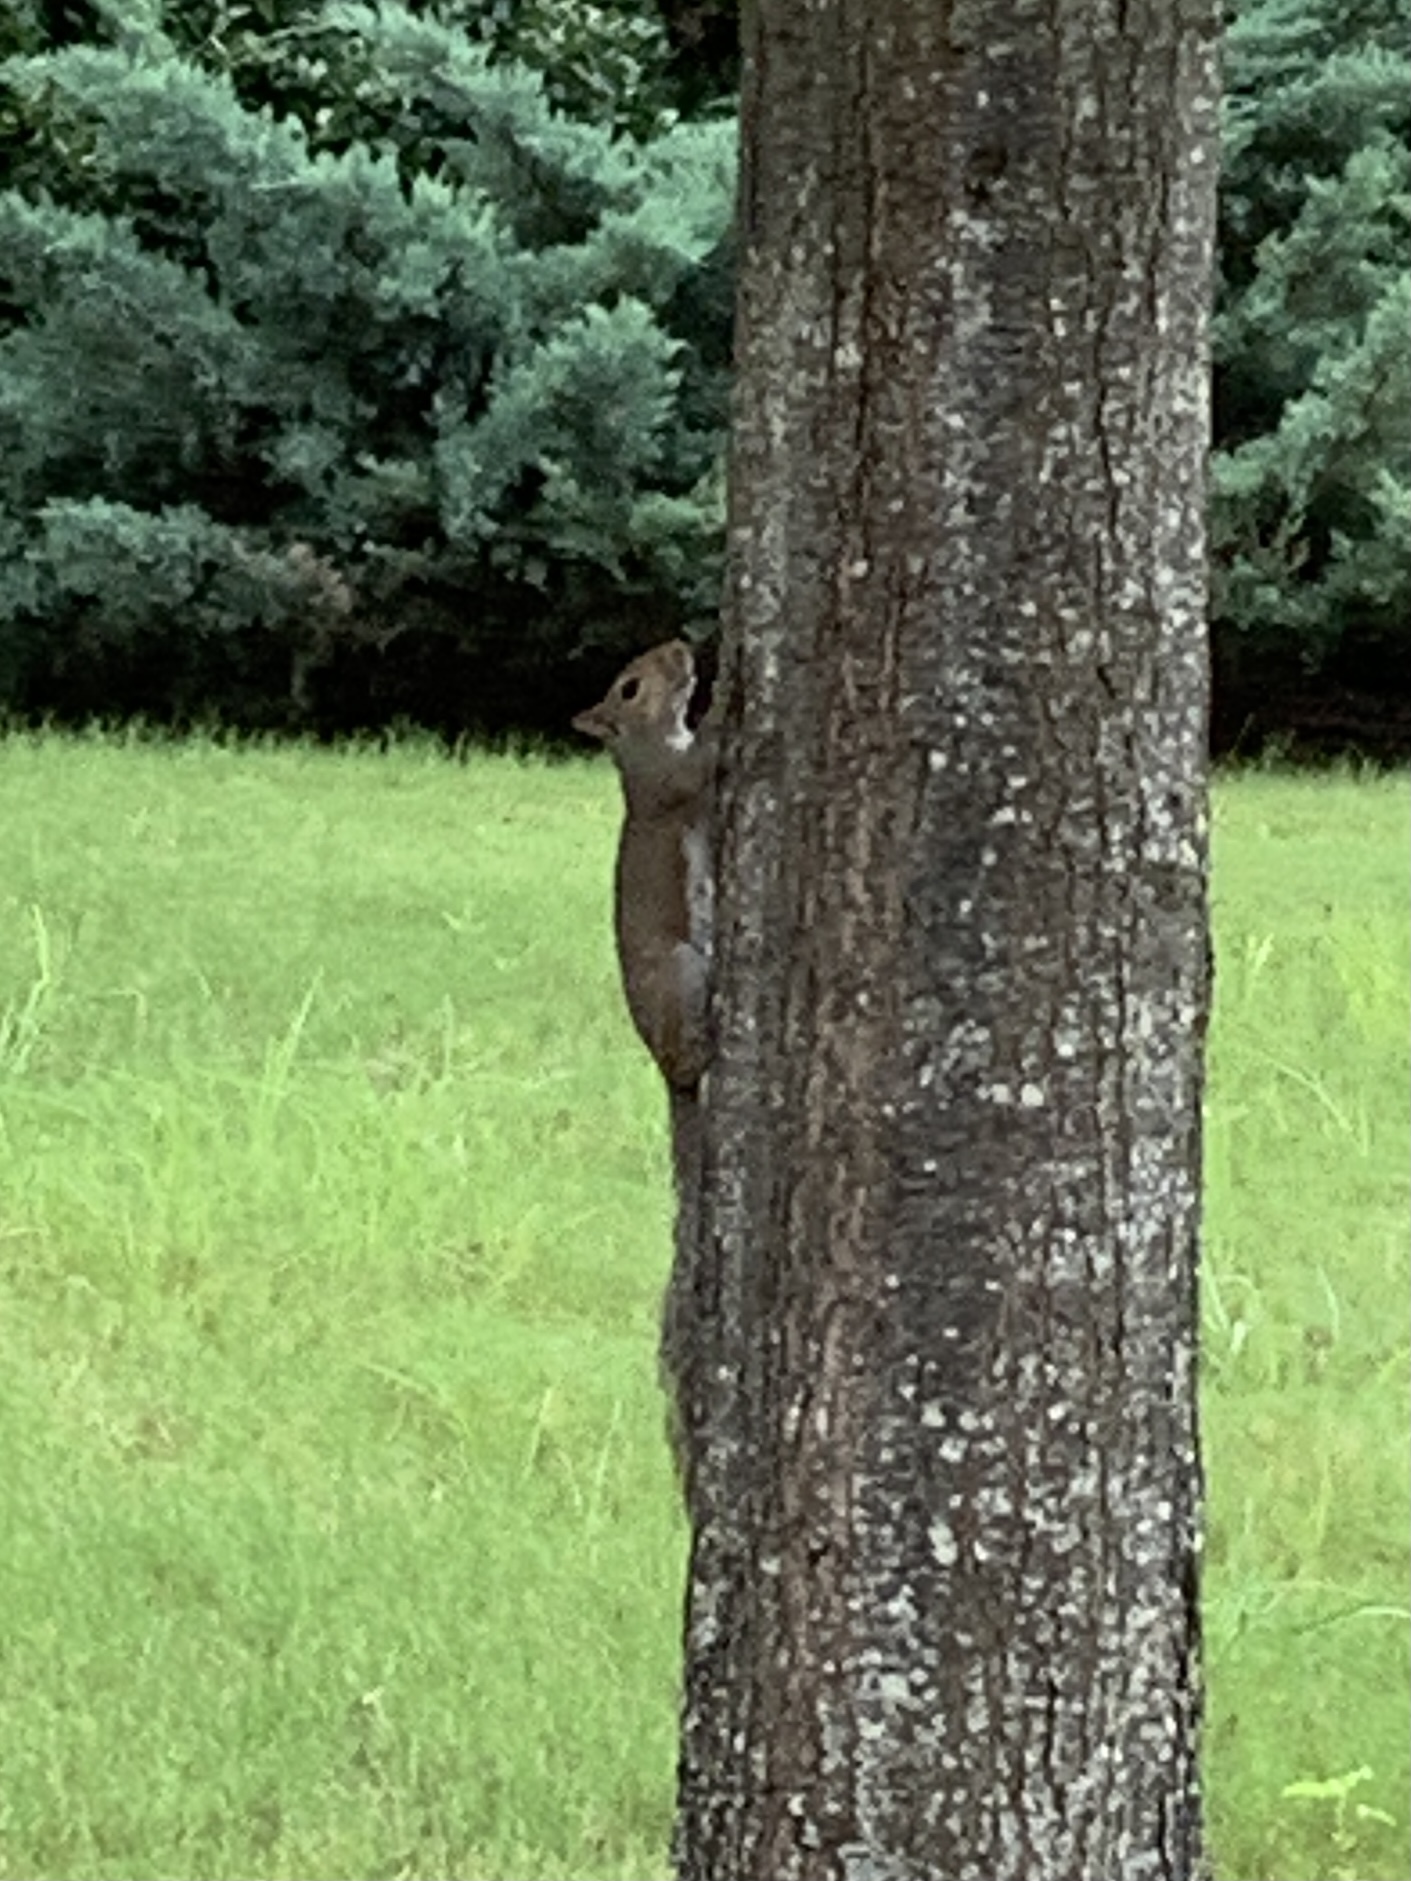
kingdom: Animalia
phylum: Chordata
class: Mammalia
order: Rodentia
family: Sciuridae
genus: Sciurus
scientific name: Sciurus carolinensis
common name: Eastern gray squirrel
